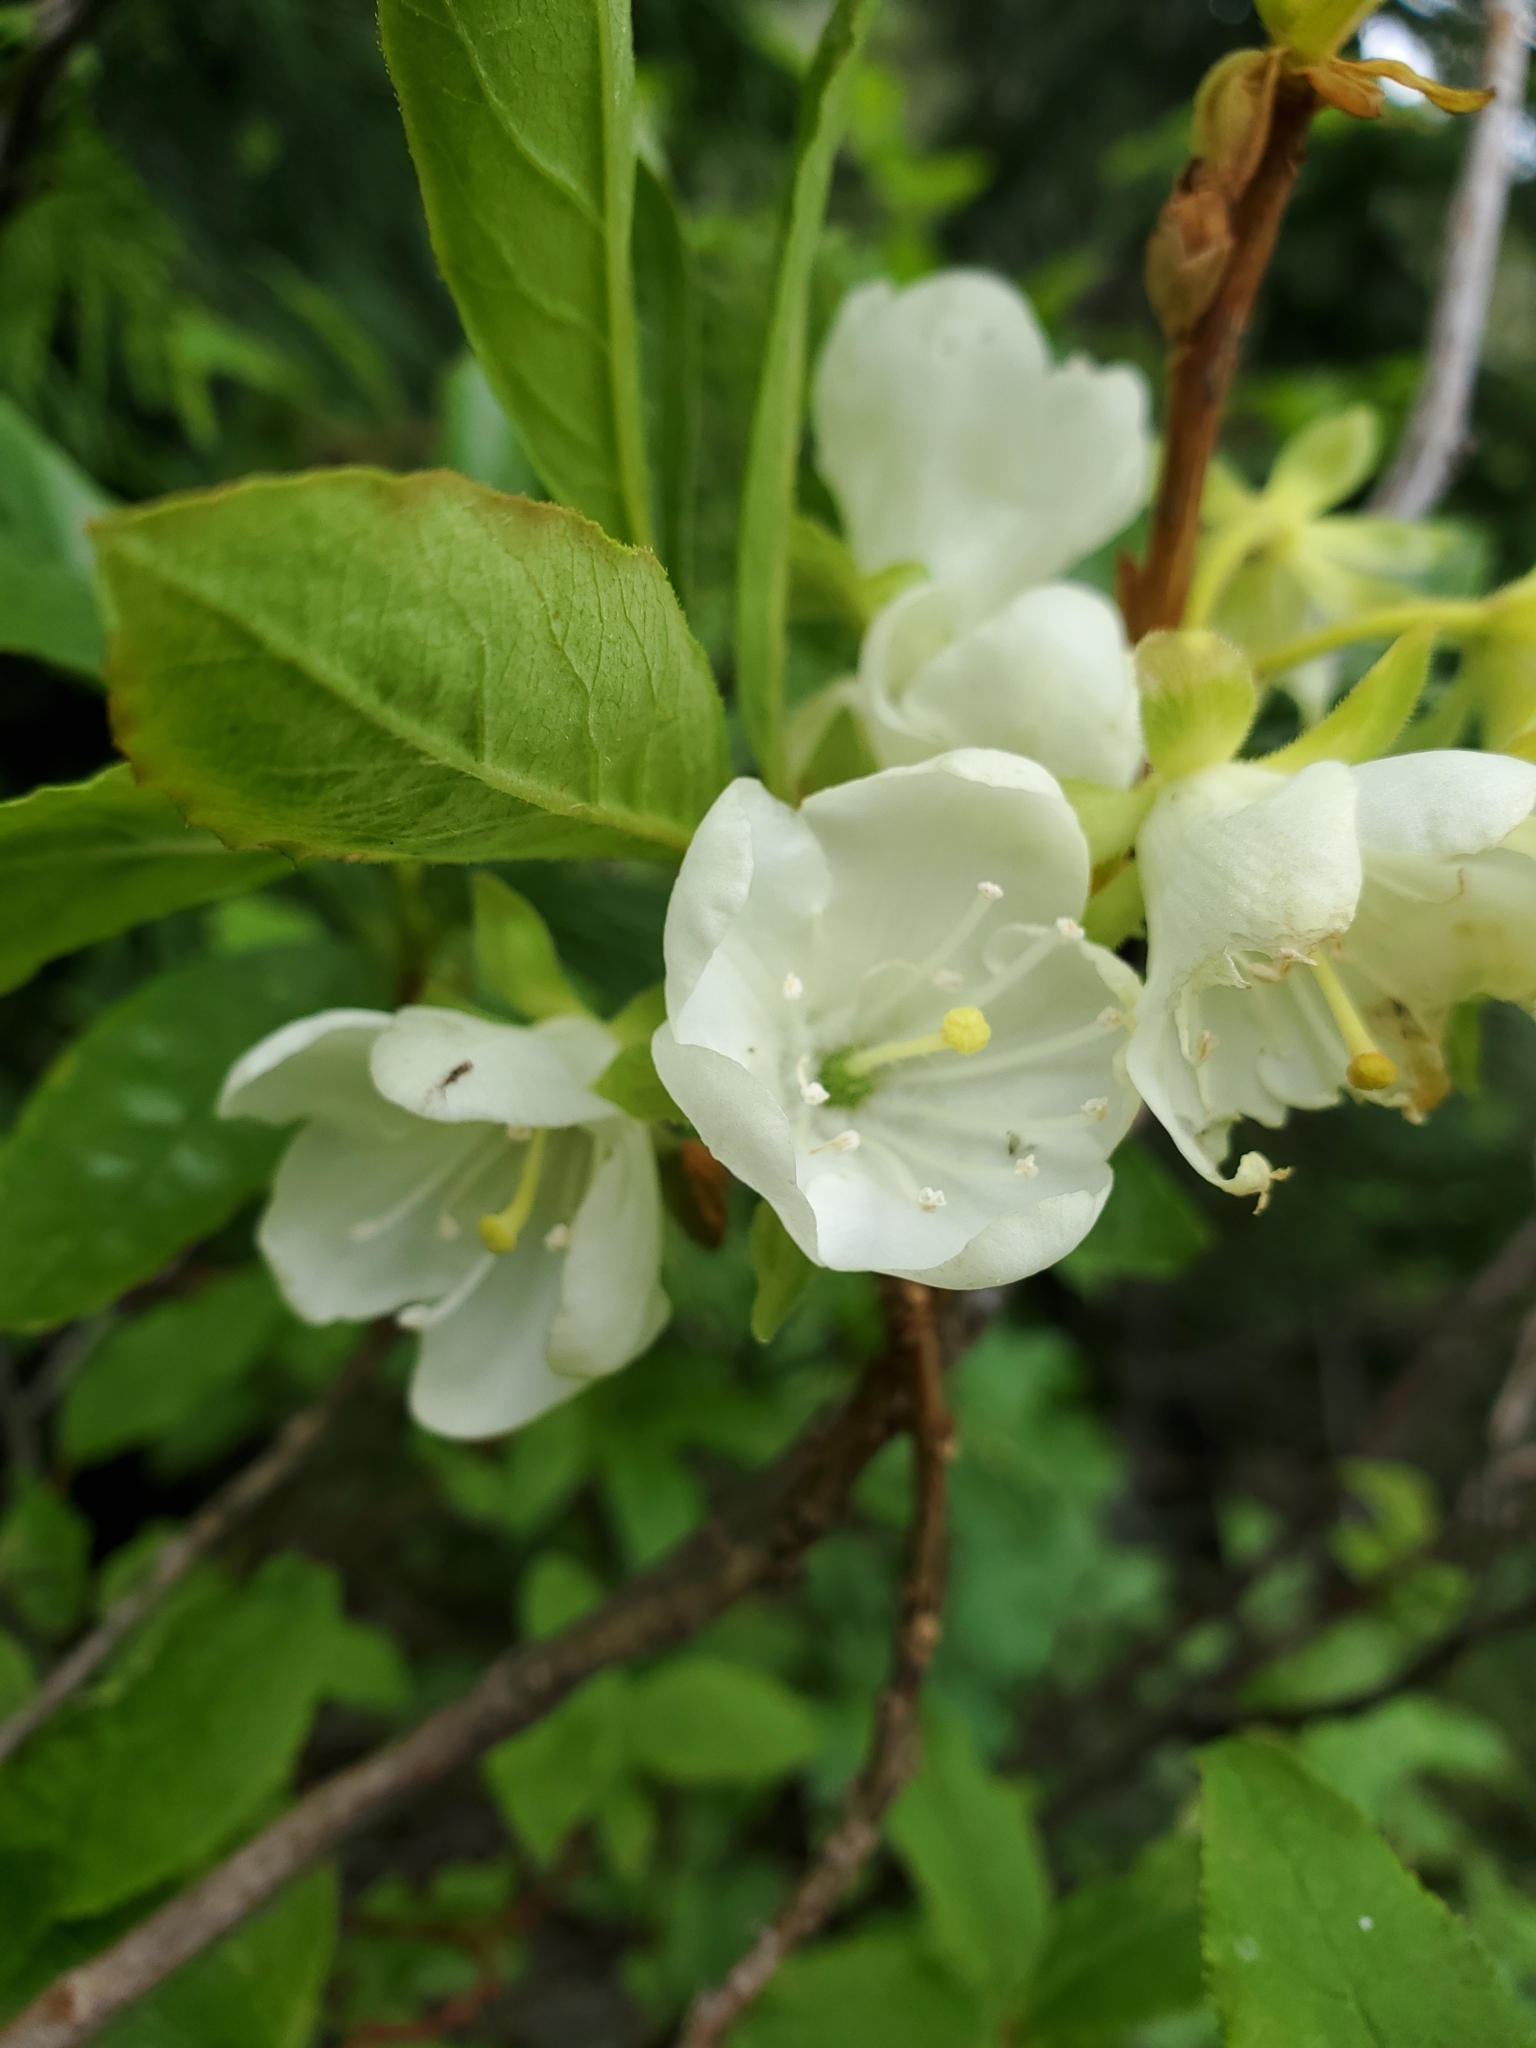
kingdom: Plantae
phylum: Tracheophyta
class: Magnoliopsida
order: Ericales
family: Ericaceae
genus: Rhododendron
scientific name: Rhododendron albiflorum
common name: White rhododendron
